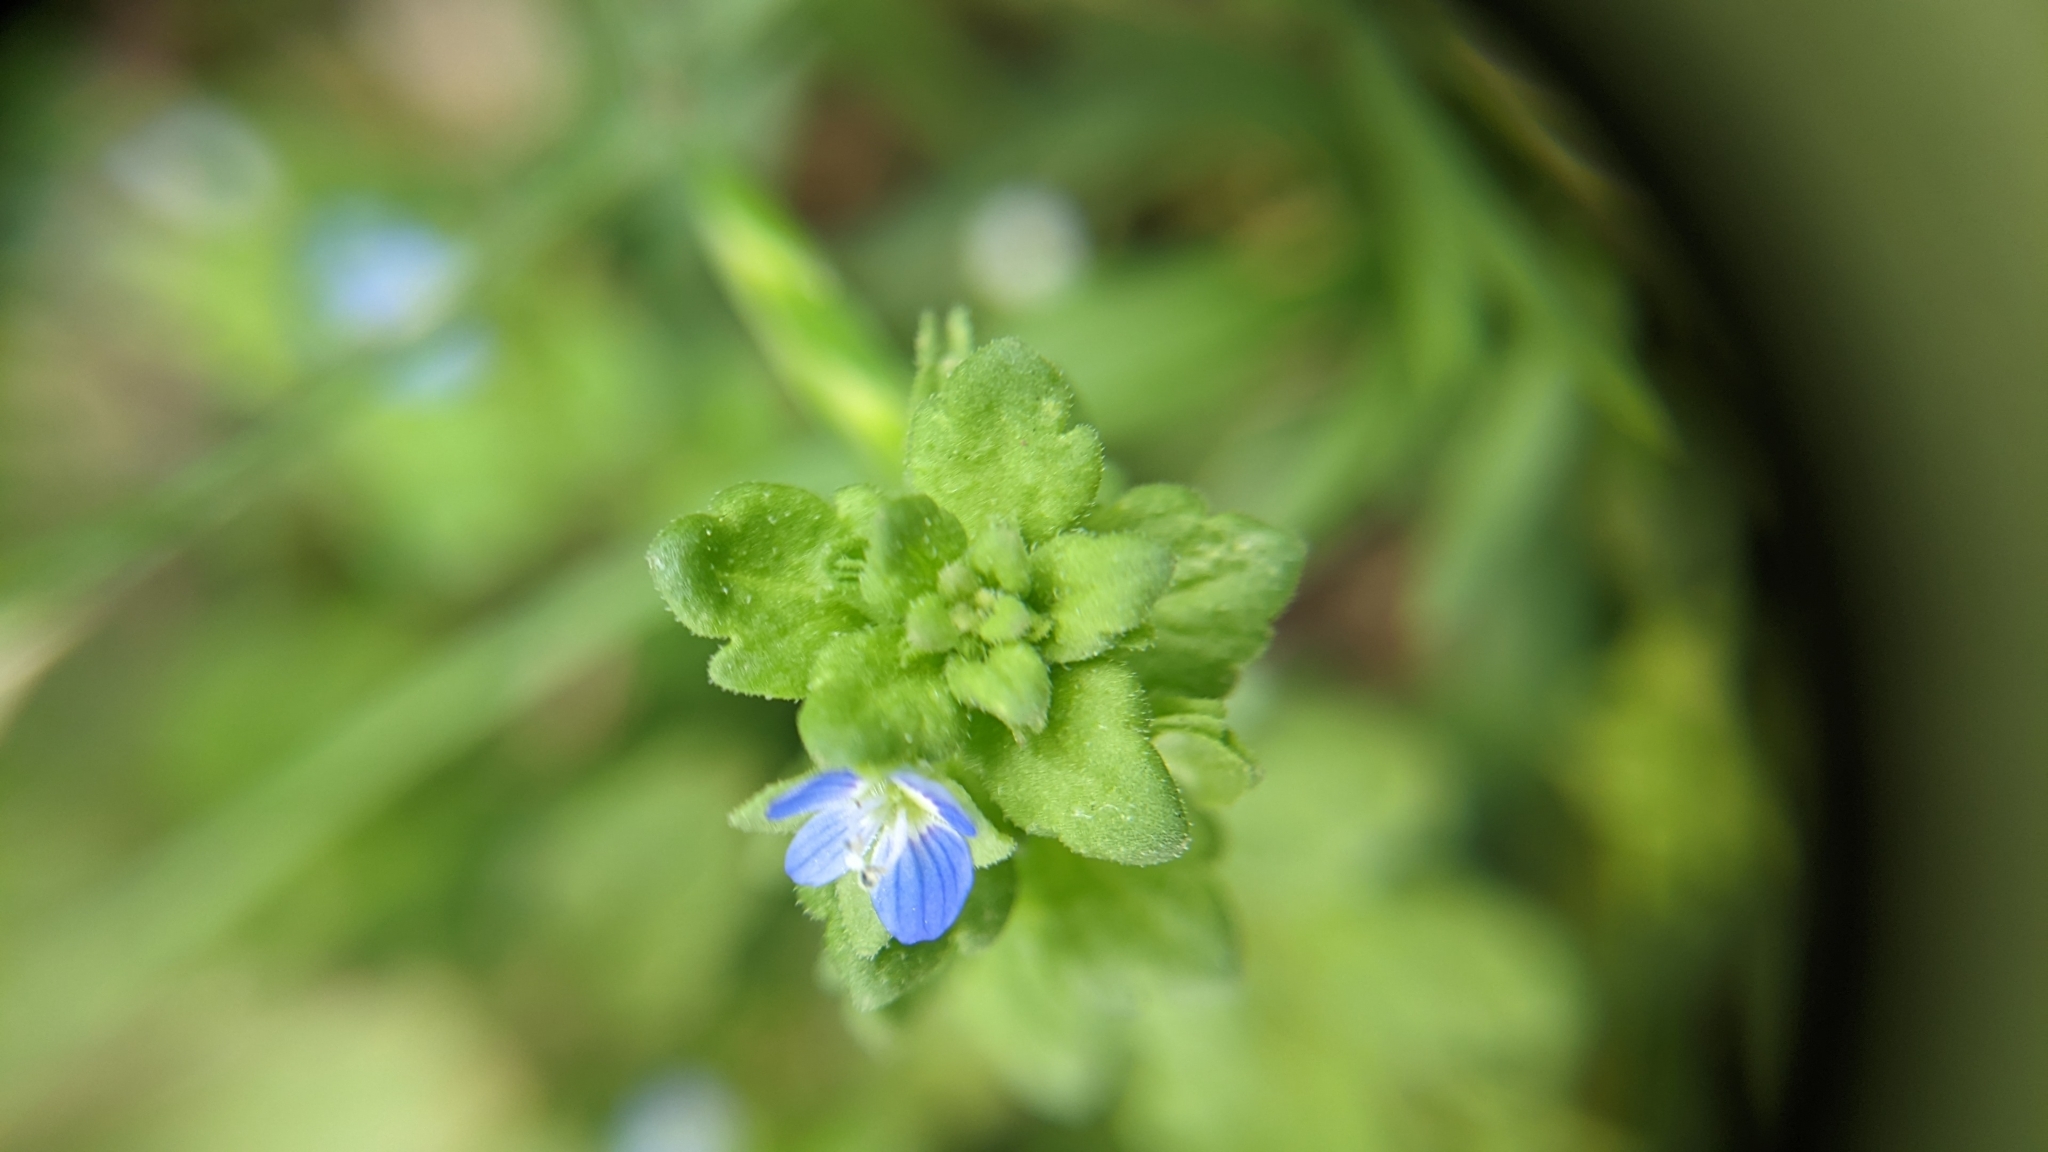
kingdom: Plantae
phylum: Tracheophyta
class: Magnoliopsida
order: Lamiales
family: Plantaginaceae
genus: Veronica
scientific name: Veronica polita
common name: Grey field-speedwell
